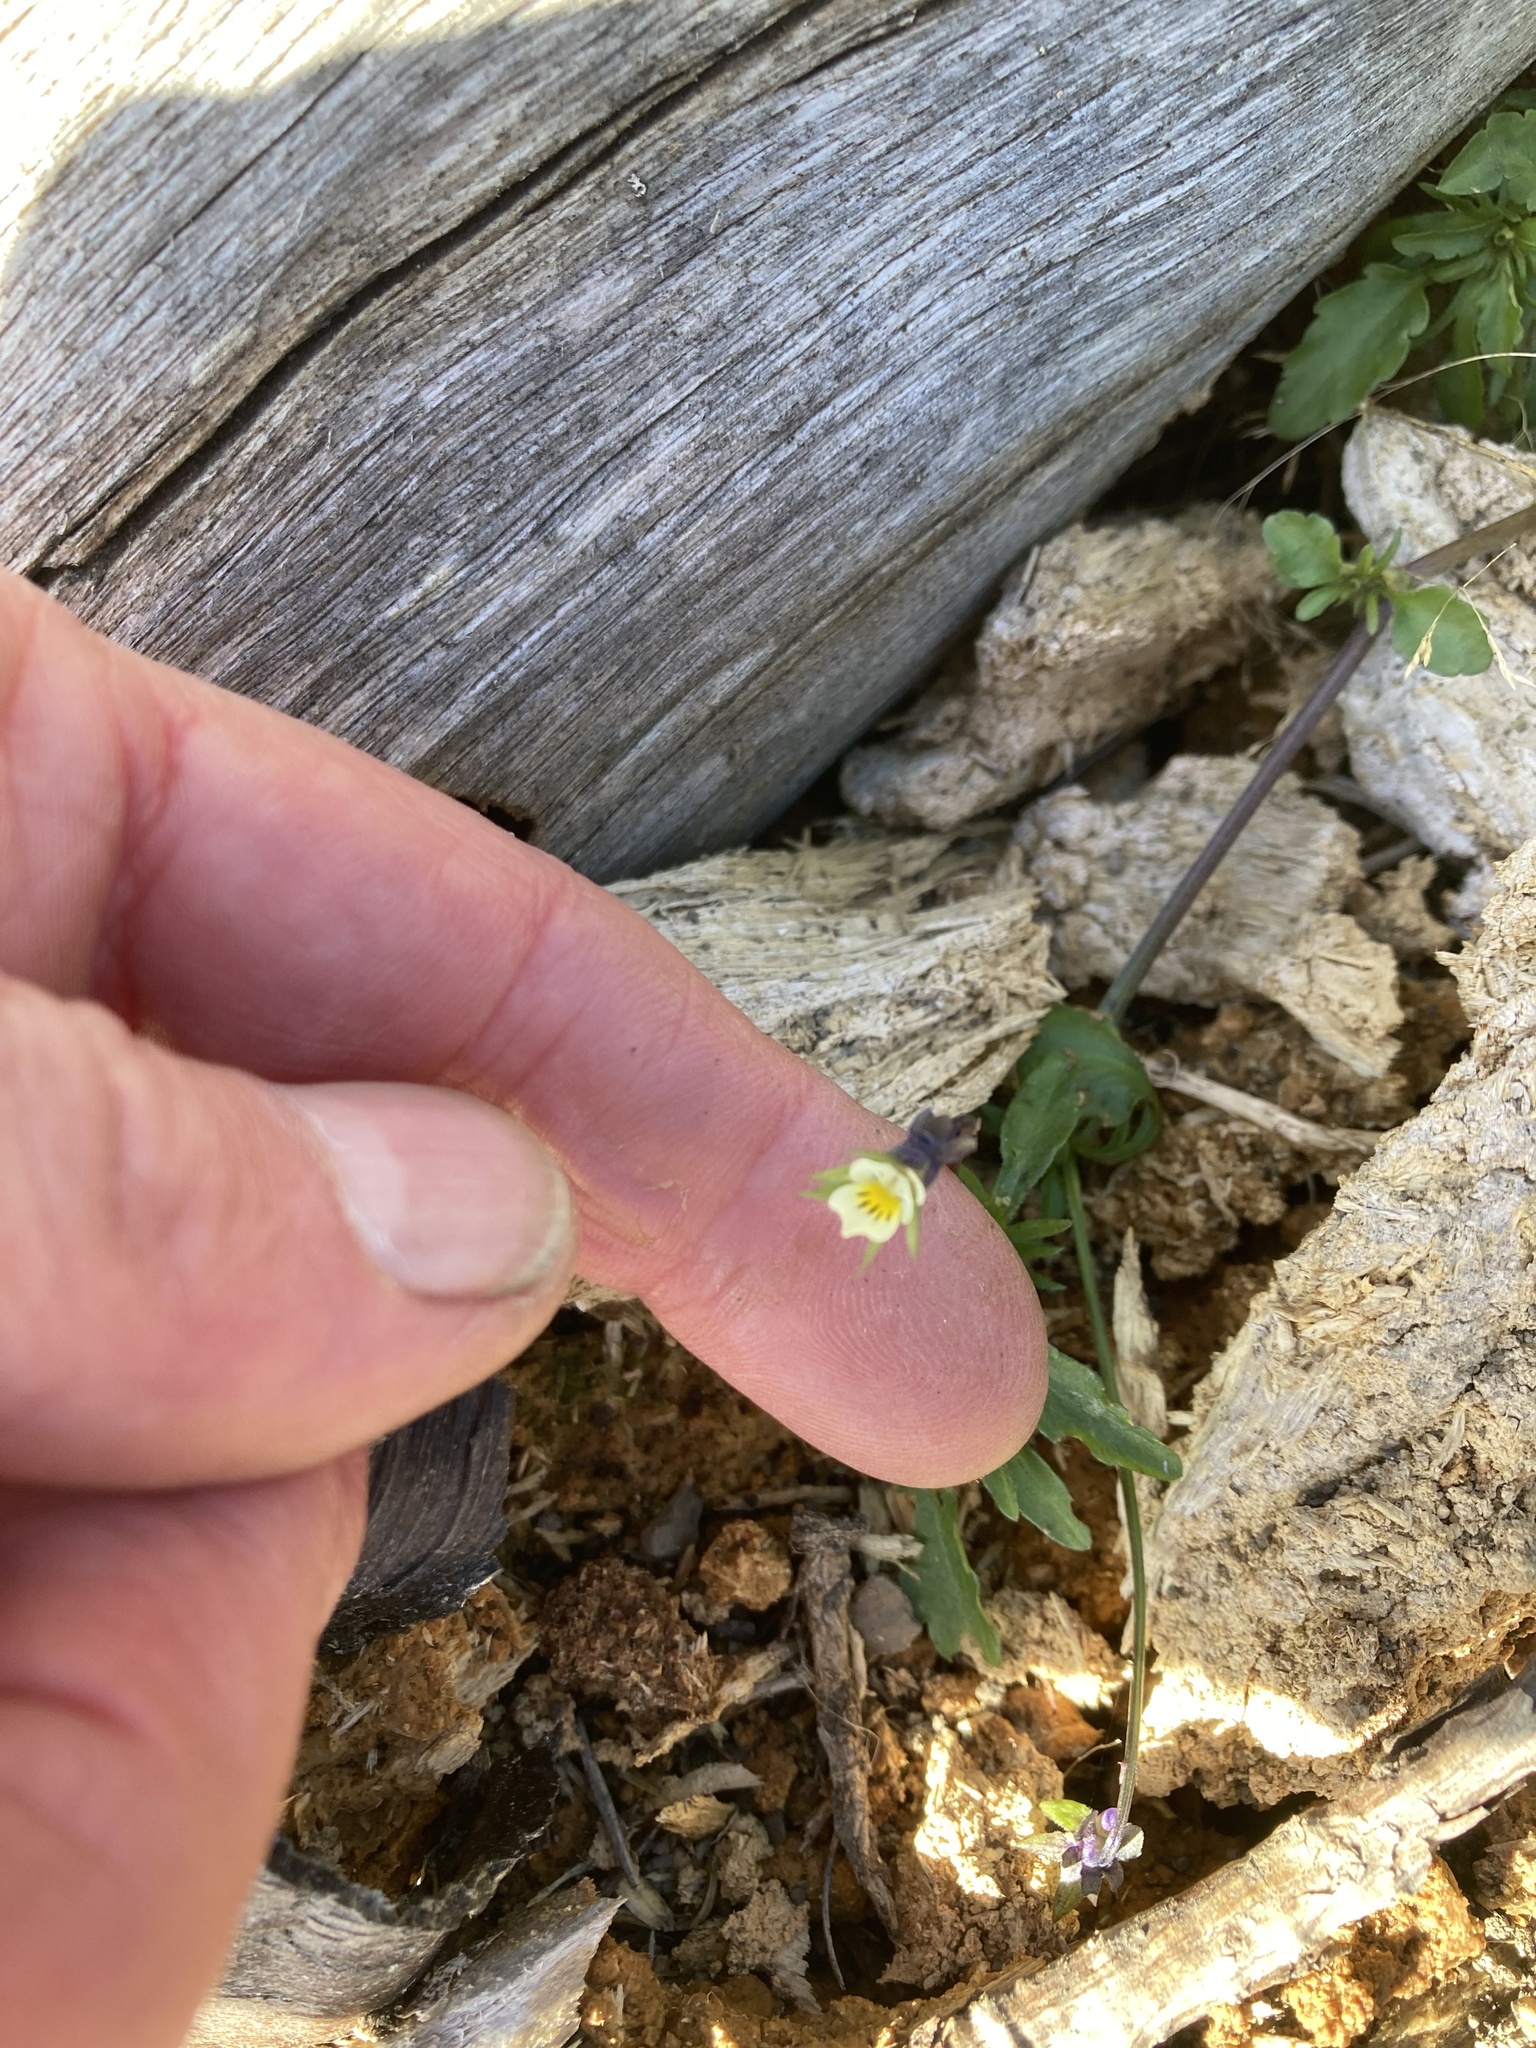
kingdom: Plantae
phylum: Tracheophyta
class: Magnoliopsida
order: Malpighiales
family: Violaceae
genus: Viola
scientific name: Viola arvensis
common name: Field pansy
